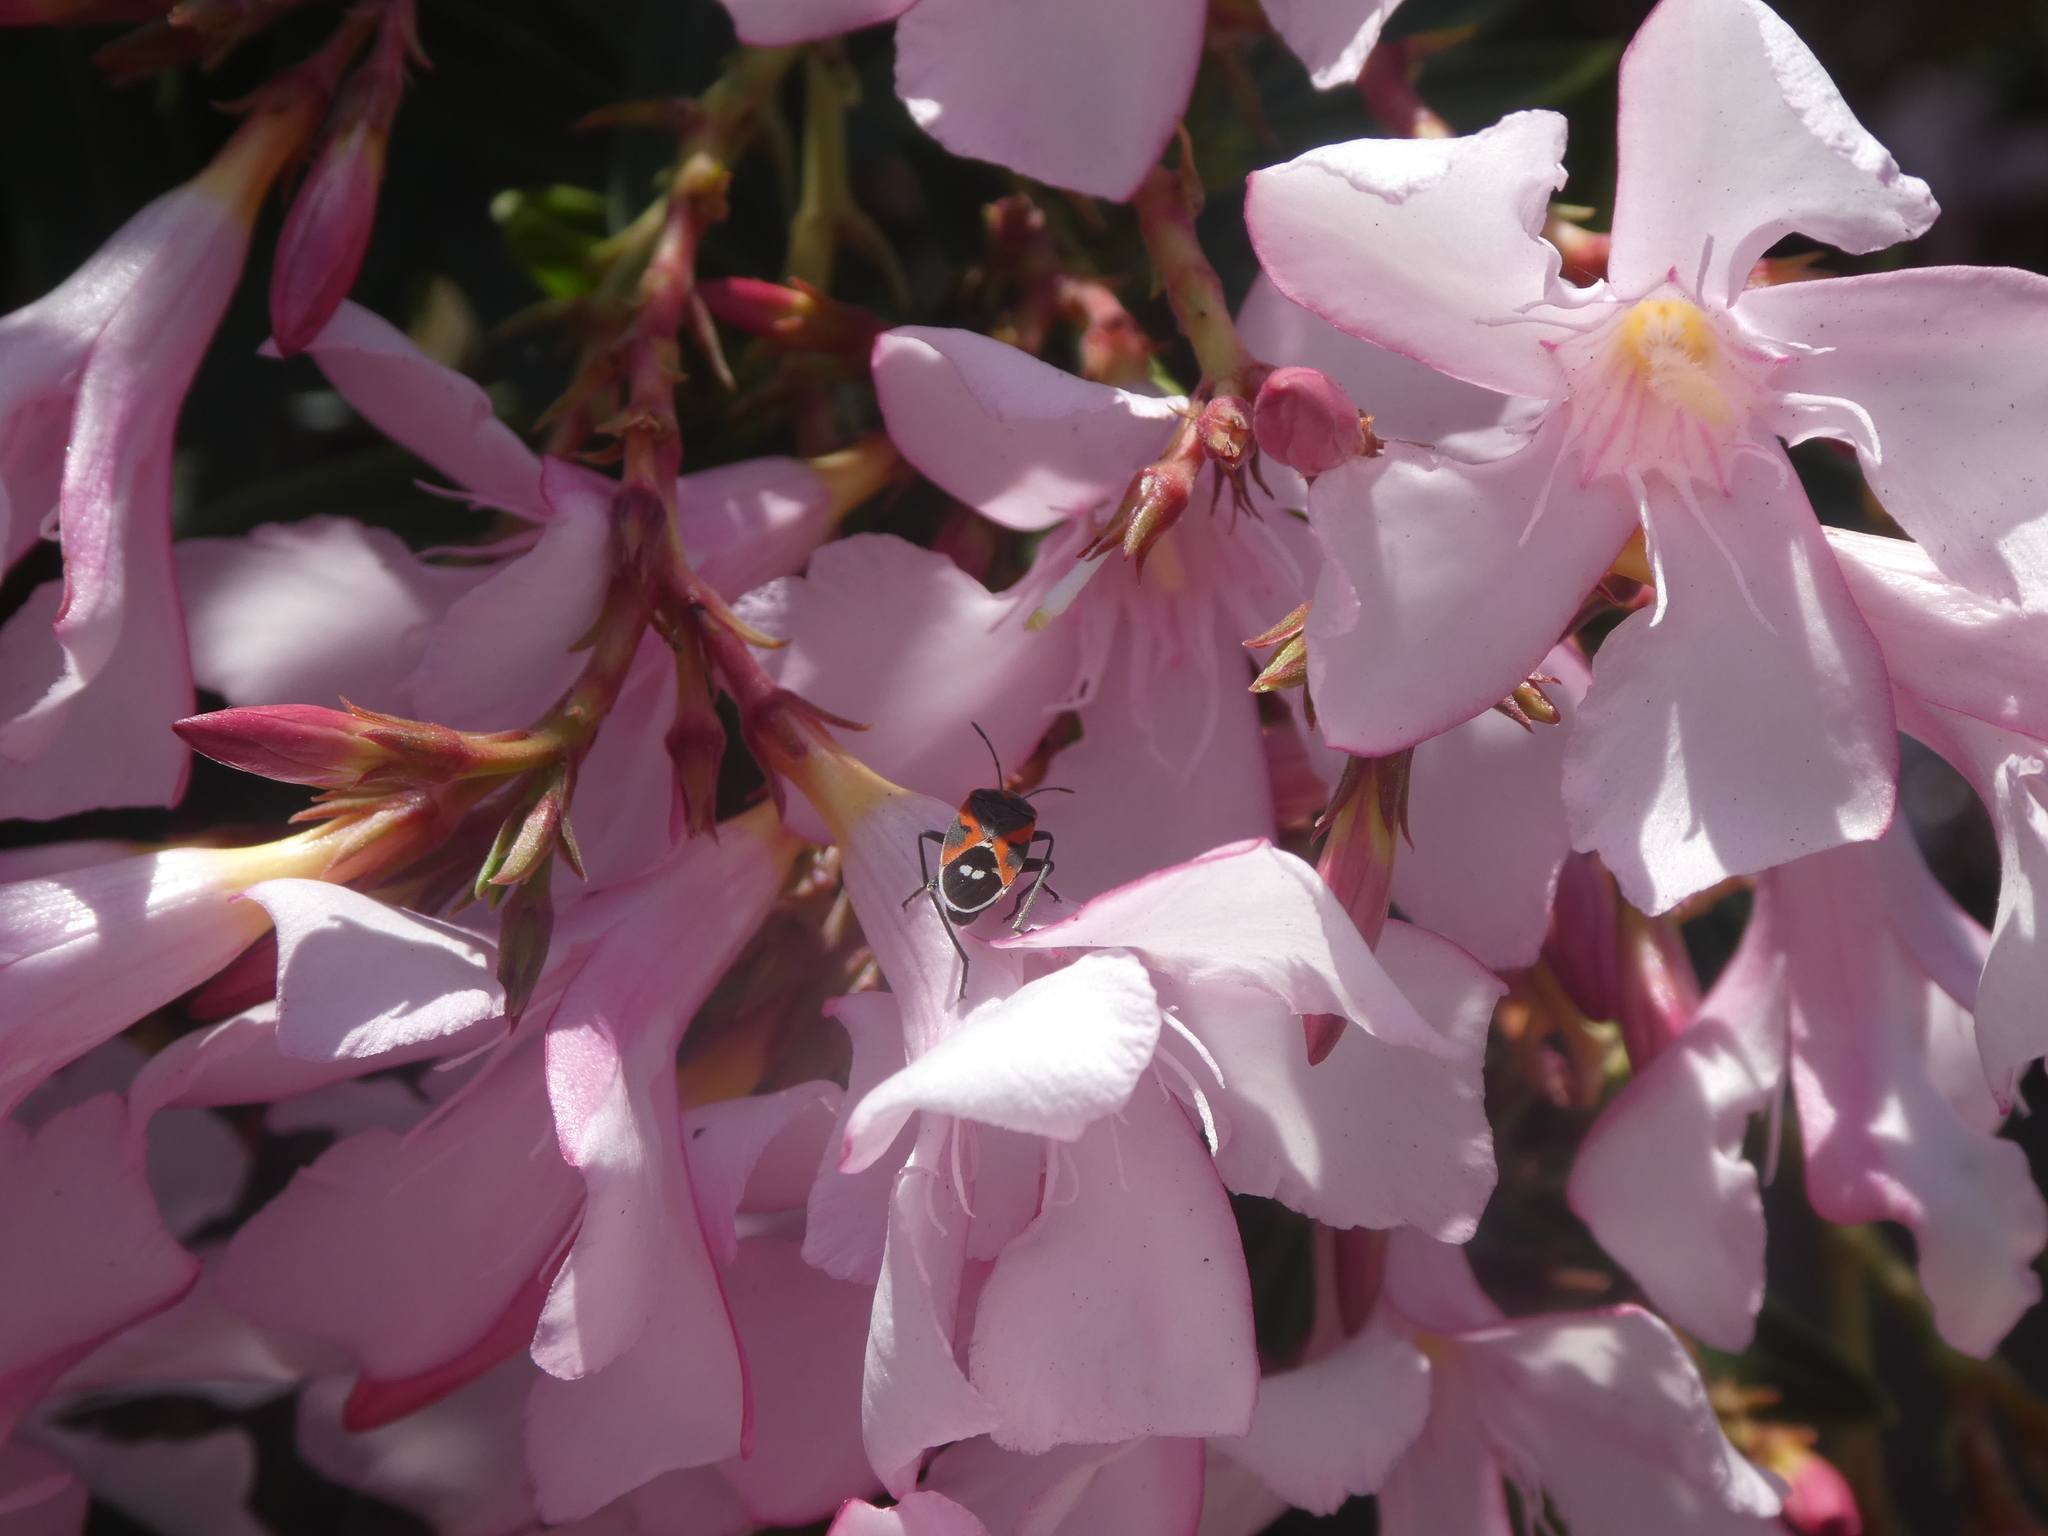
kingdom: Animalia
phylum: Arthropoda
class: Insecta
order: Hemiptera
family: Lygaeidae
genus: Lygaeus
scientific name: Lygaeus kalmii
